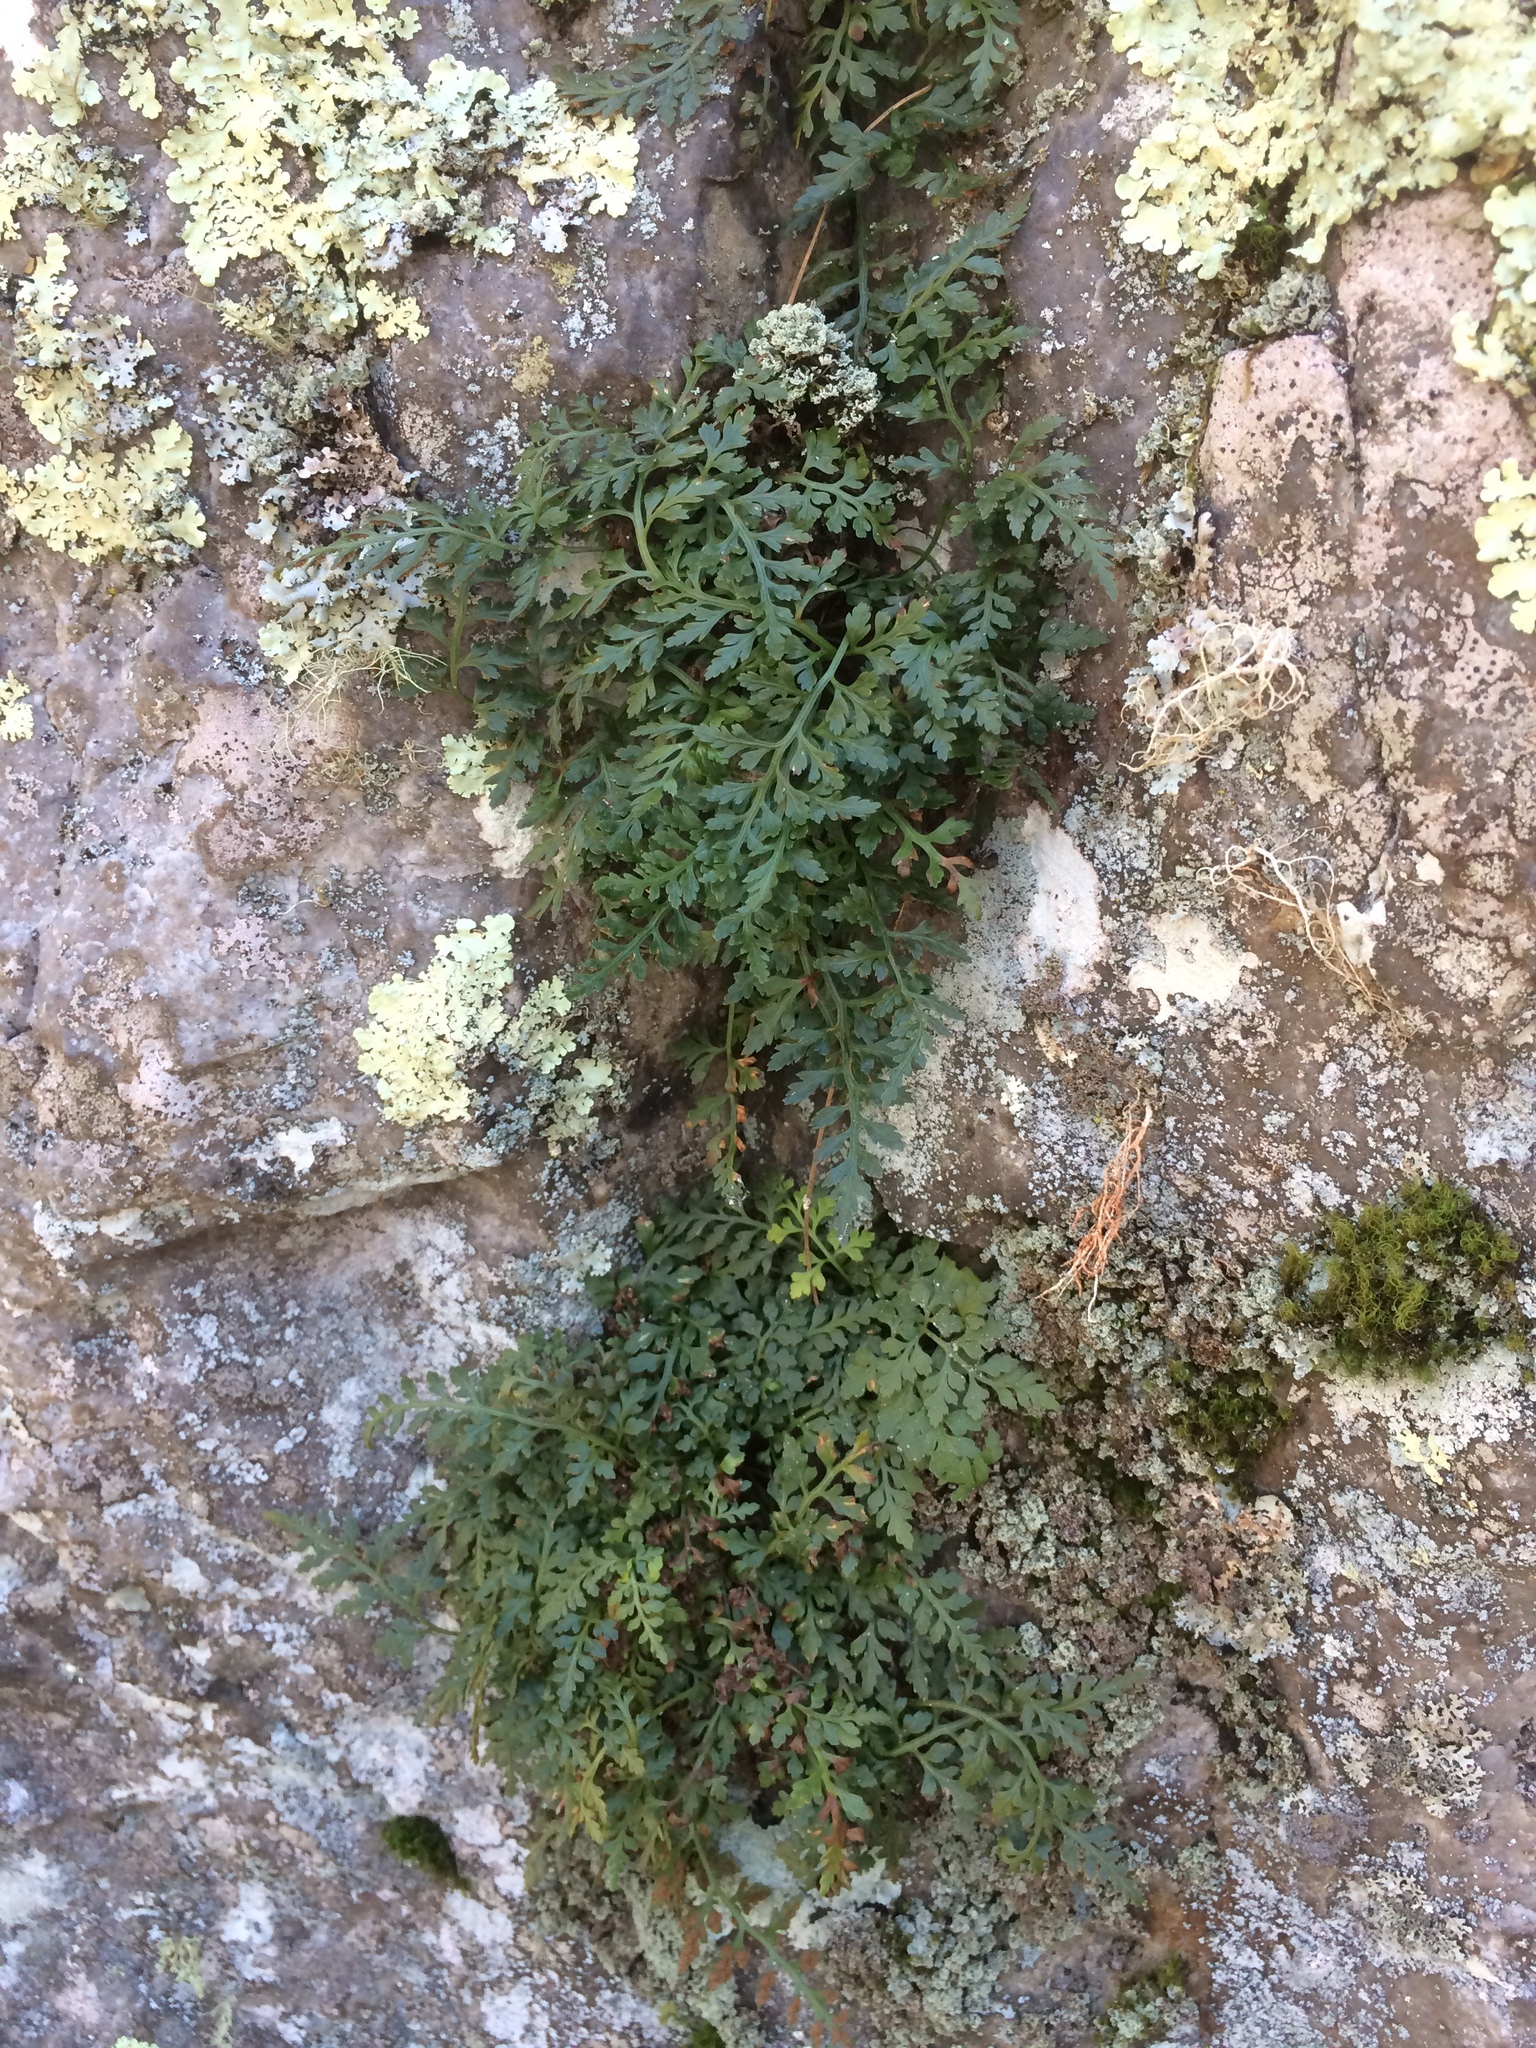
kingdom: Plantae
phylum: Tracheophyta
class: Polypodiopsida
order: Polypodiales
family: Aspleniaceae
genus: Asplenium
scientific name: Asplenium montanum
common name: Mountain spleenwort
